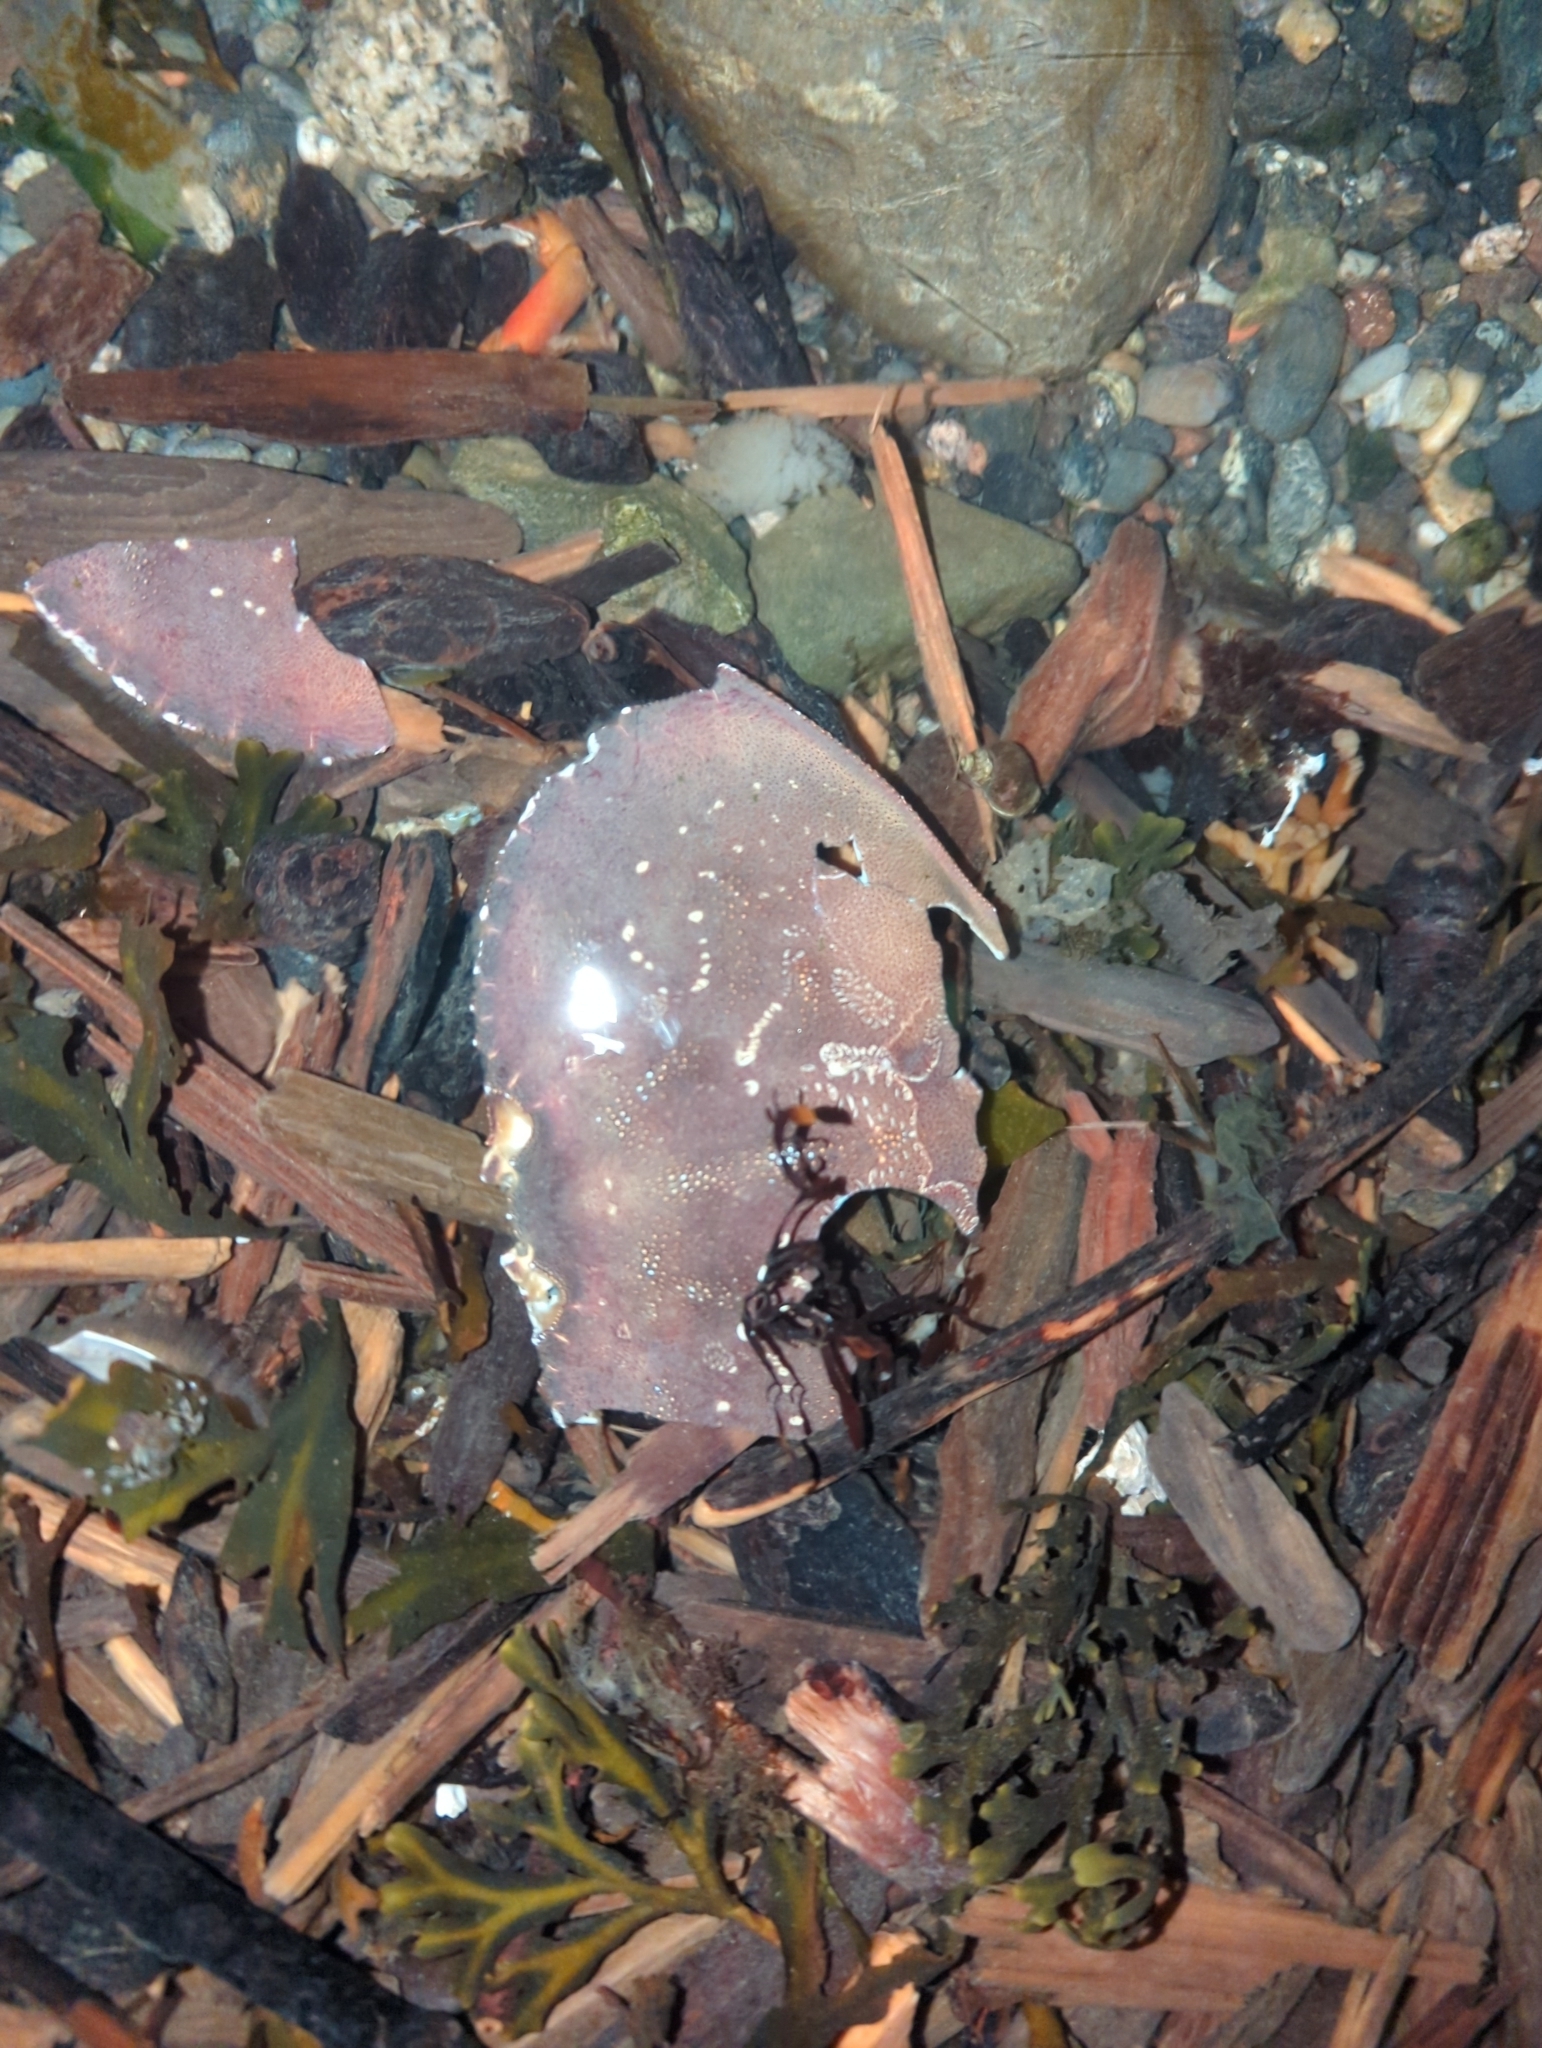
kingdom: Animalia
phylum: Arthropoda
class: Malacostraca
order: Decapoda
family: Cancridae
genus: Metacarcinus
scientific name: Metacarcinus magister
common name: Californian crab
